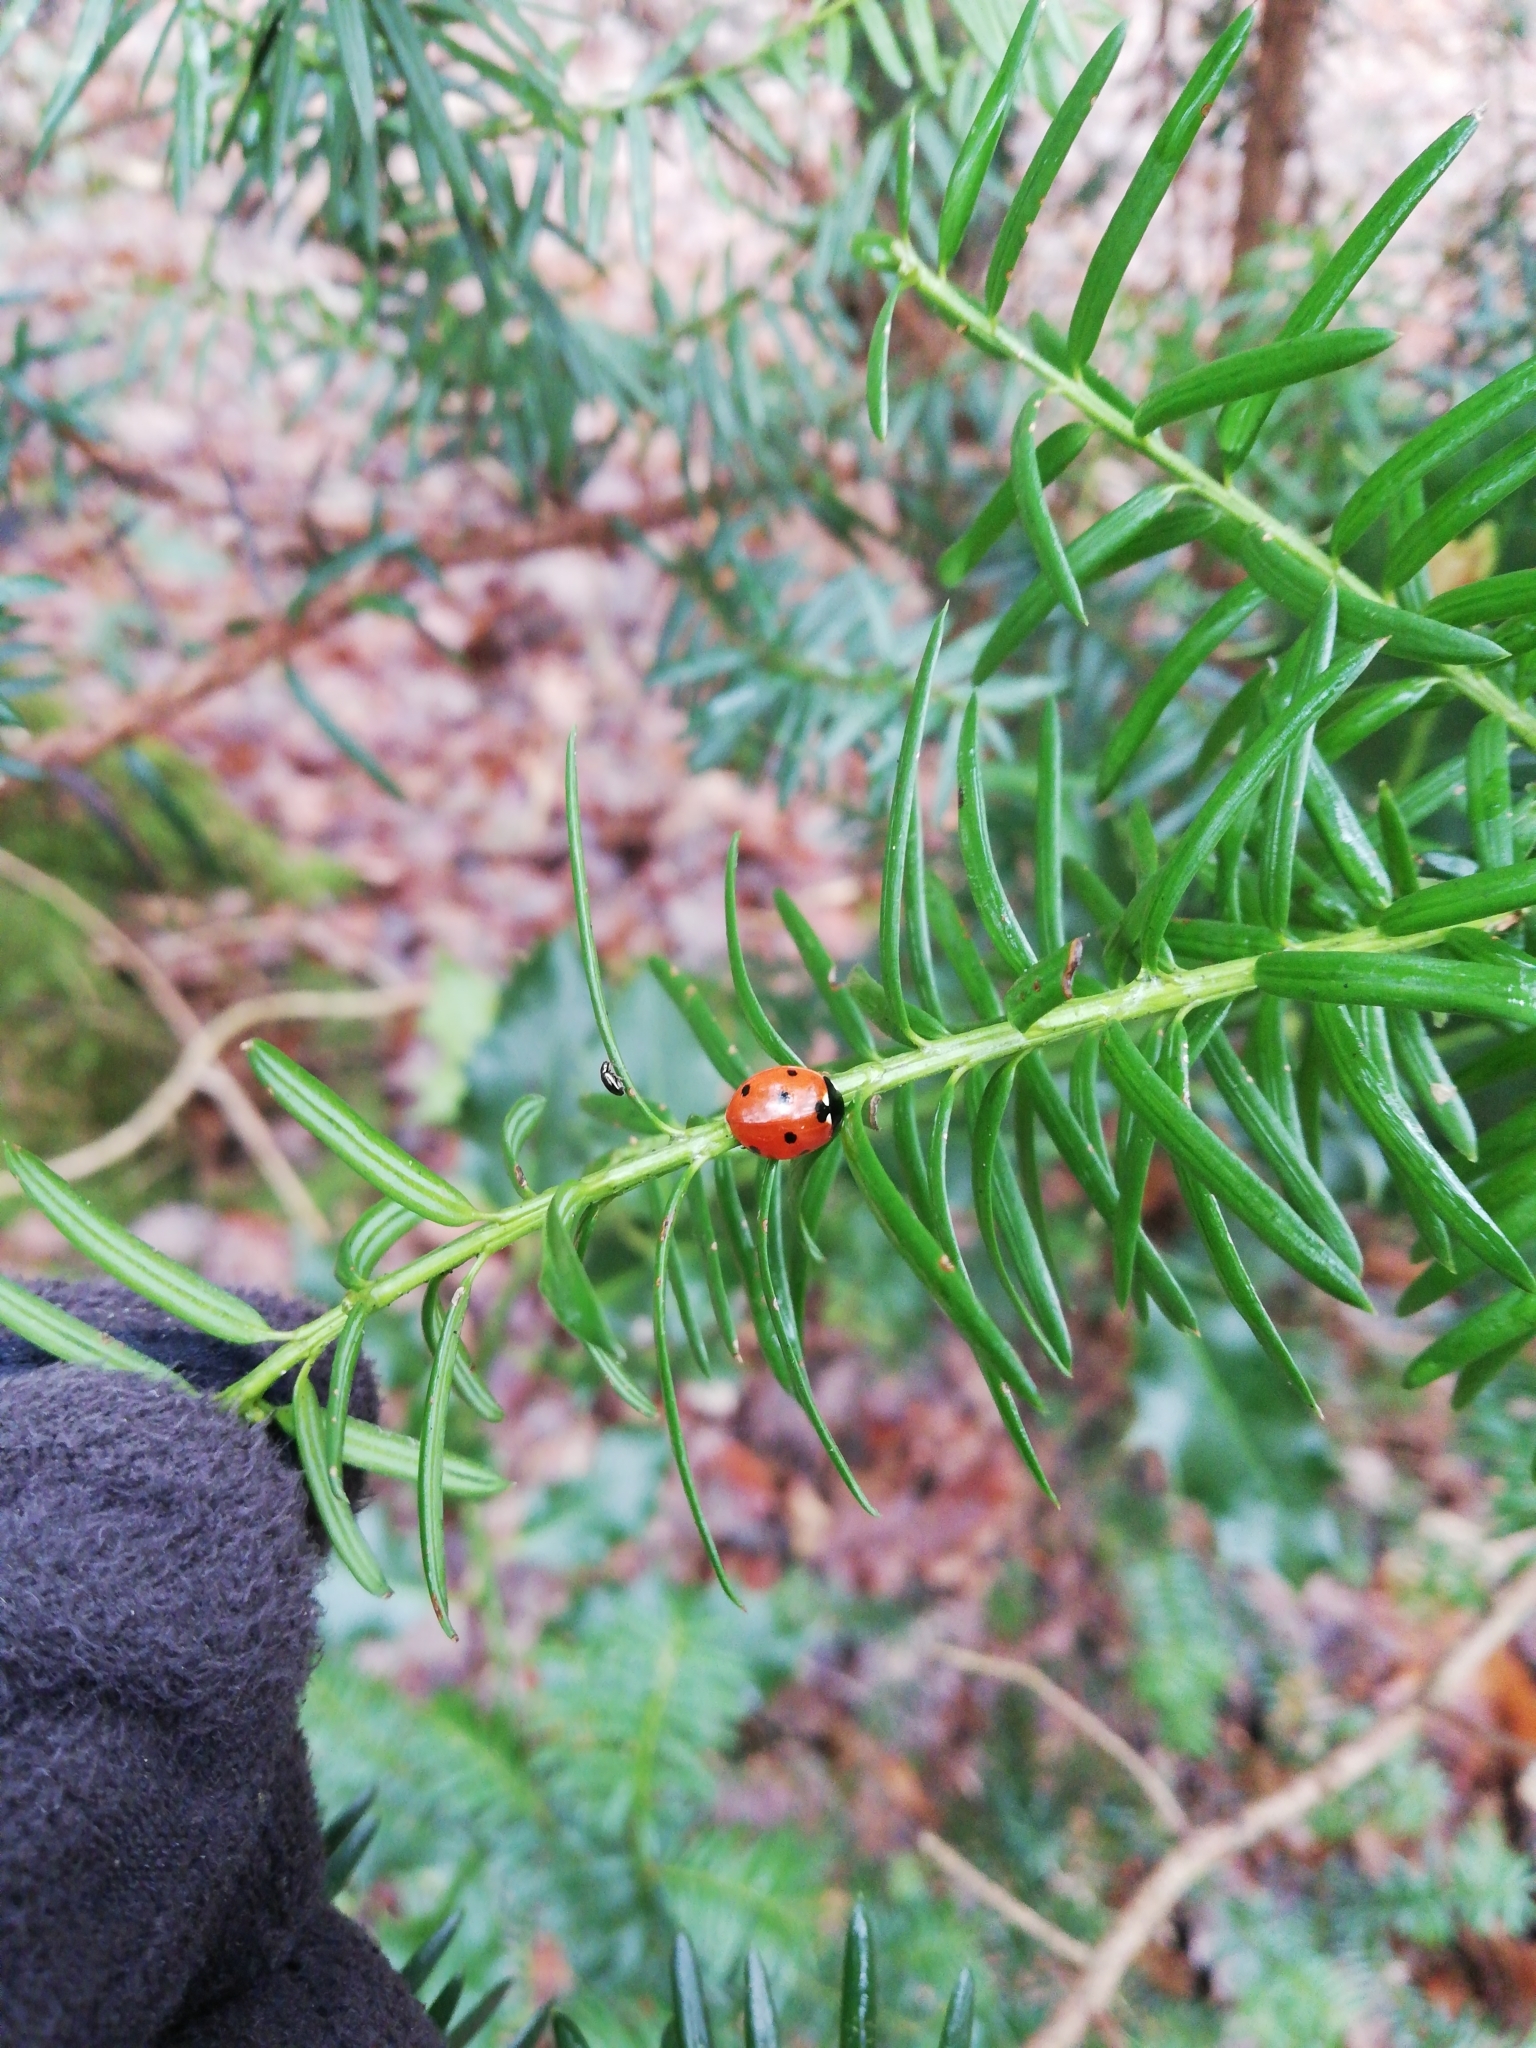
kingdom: Animalia
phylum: Arthropoda
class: Insecta
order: Coleoptera
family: Coccinellidae
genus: Coccinella
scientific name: Coccinella septempunctata
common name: Sevenspotted lady beetle
